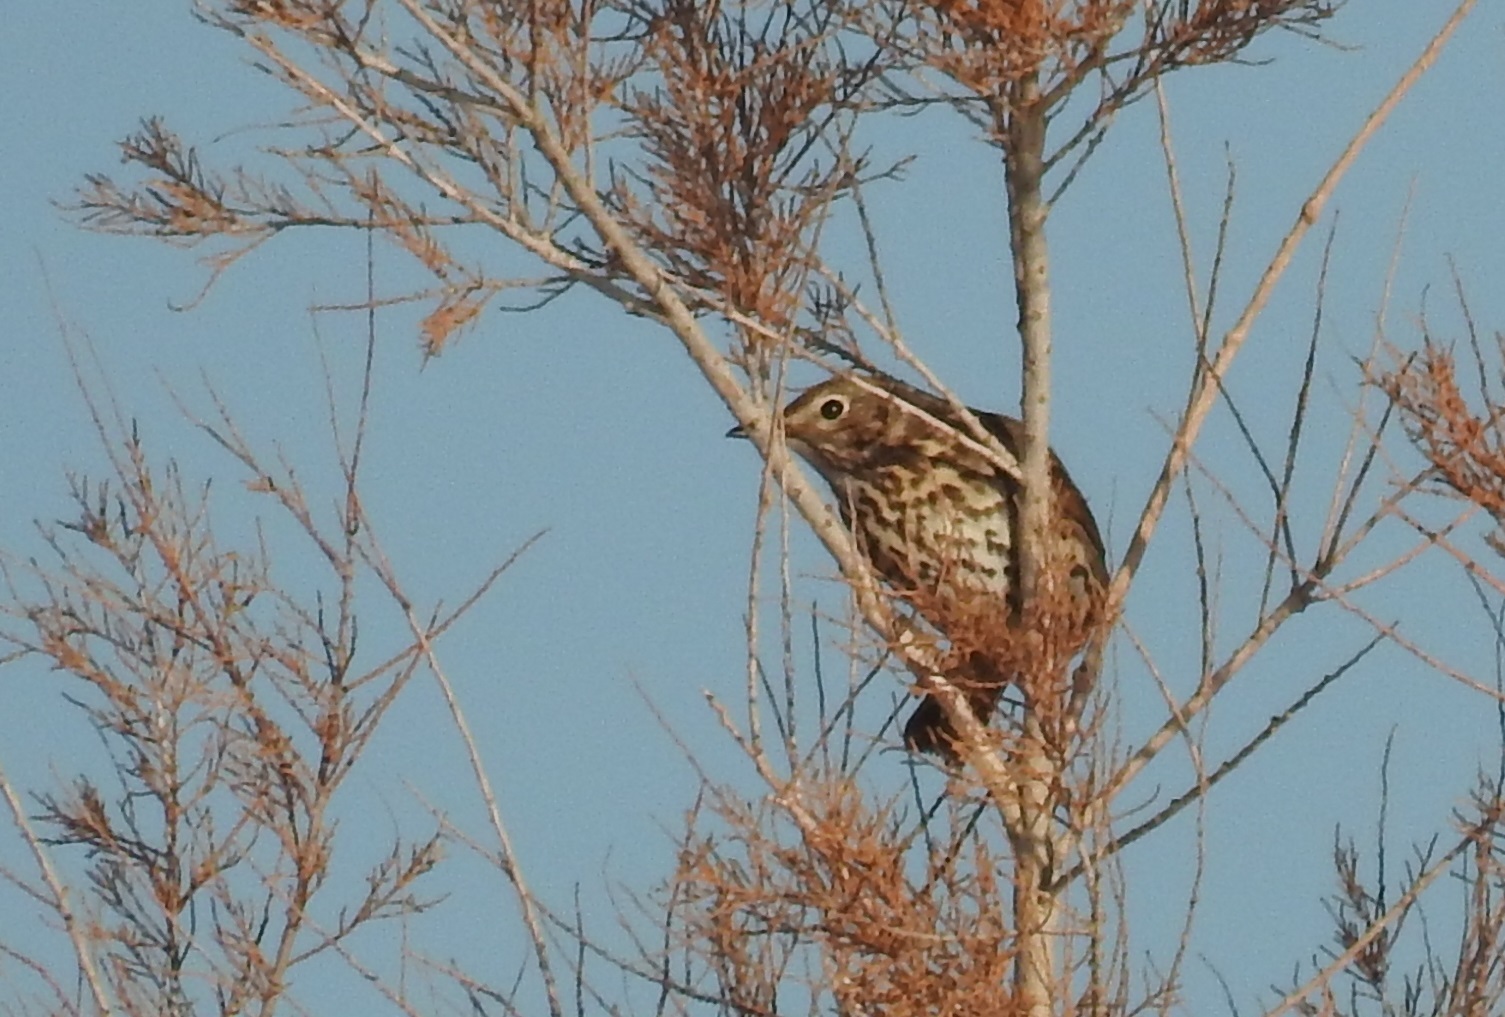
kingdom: Animalia
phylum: Chordata
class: Aves
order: Passeriformes
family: Turdidae
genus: Turdus
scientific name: Turdus philomelos
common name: Song thrush
